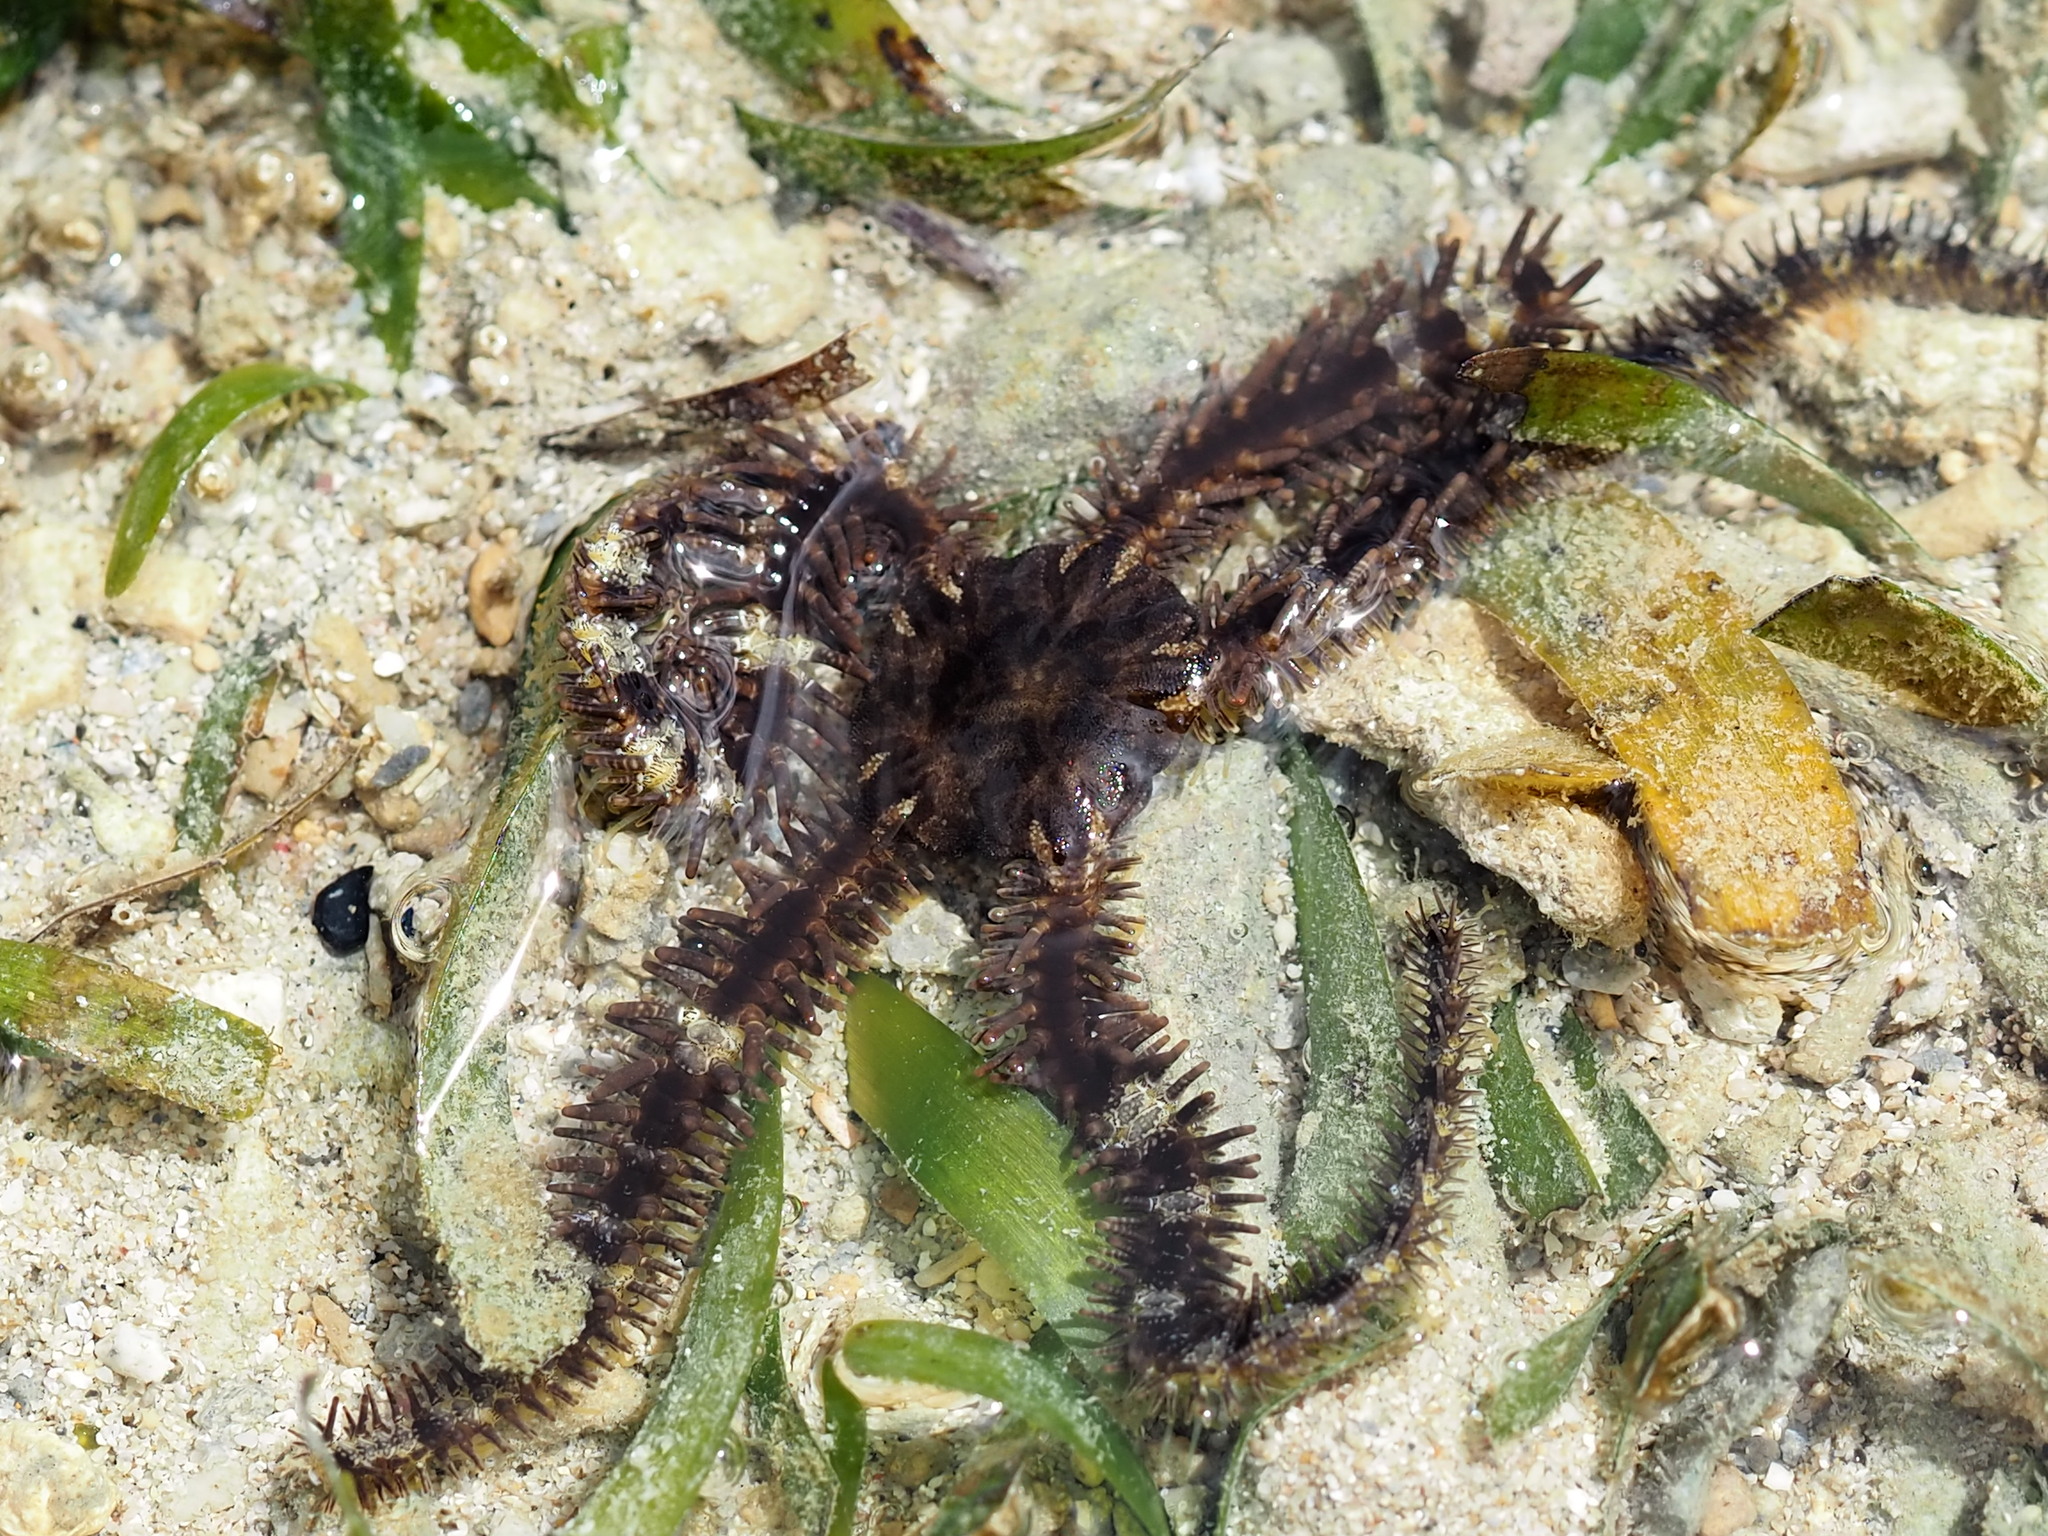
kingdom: Animalia
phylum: Echinodermata
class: Ophiuroidea
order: Ophiacanthida
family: Ophiocomidae
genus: Ophiocoma
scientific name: Ophiocoma scolopendrina
